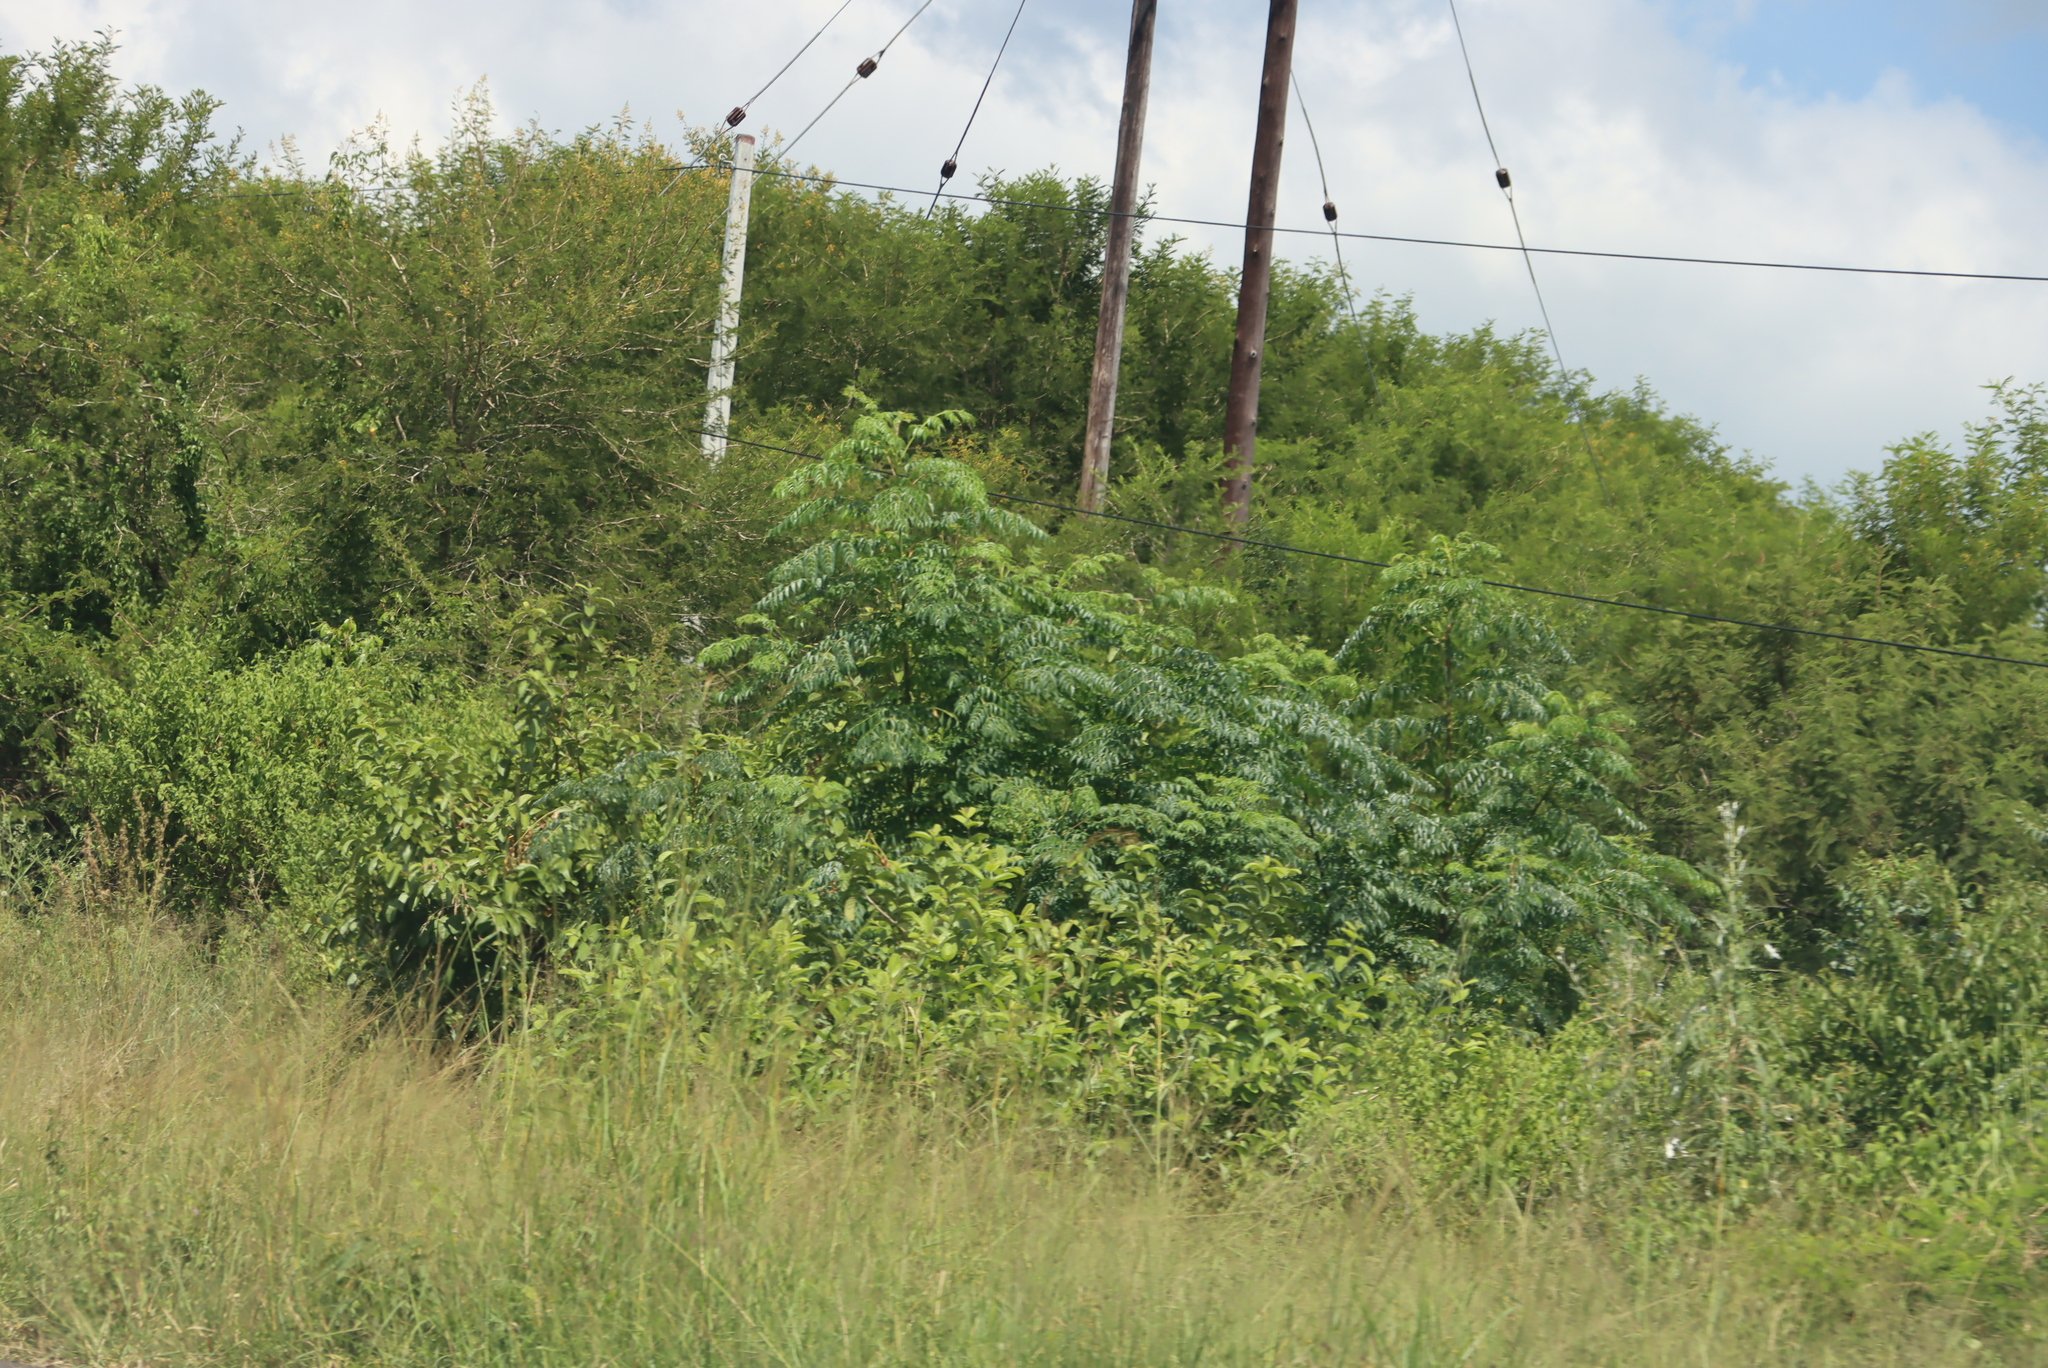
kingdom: Plantae
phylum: Tracheophyta
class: Magnoliopsida
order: Sapindales
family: Meliaceae
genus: Melia
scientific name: Melia azedarach
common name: Chinaberrytree
